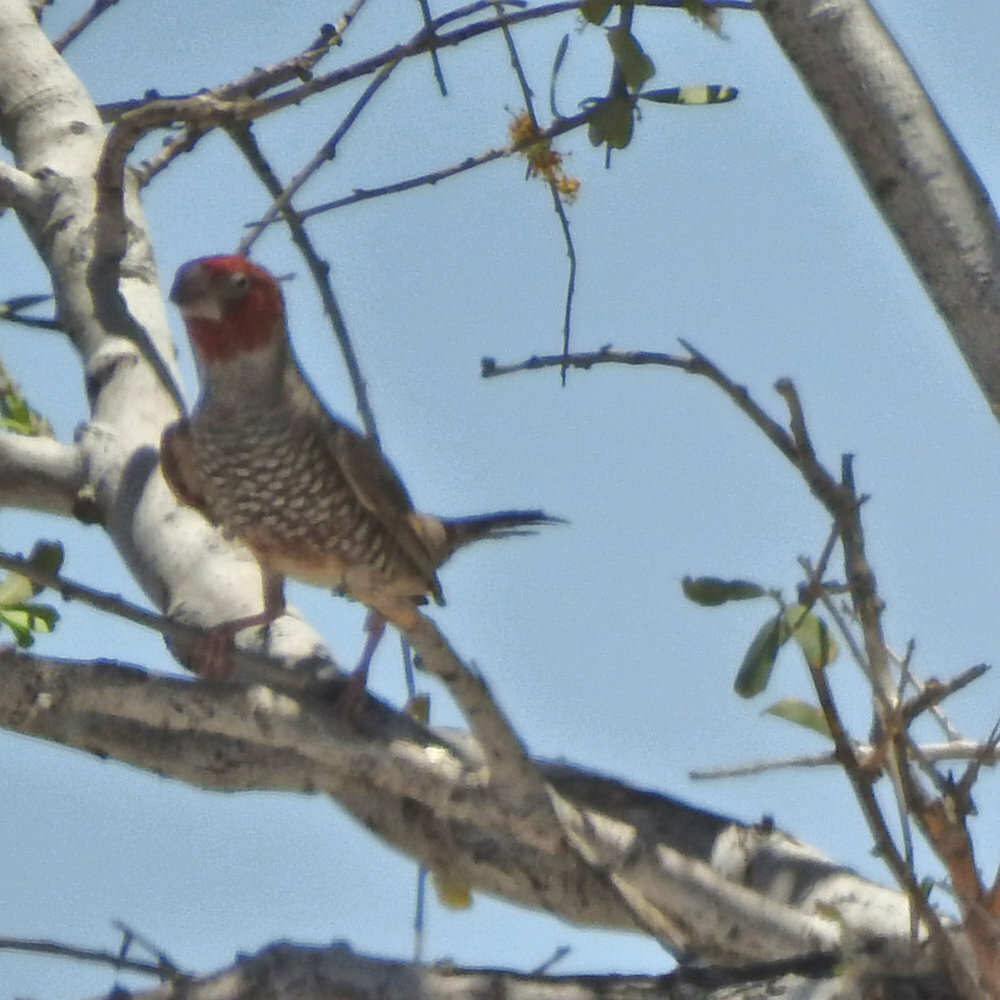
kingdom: Animalia
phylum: Chordata
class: Aves
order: Passeriformes
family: Estrildidae
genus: Amadina
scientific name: Amadina erythrocephala
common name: Red-headed finch
